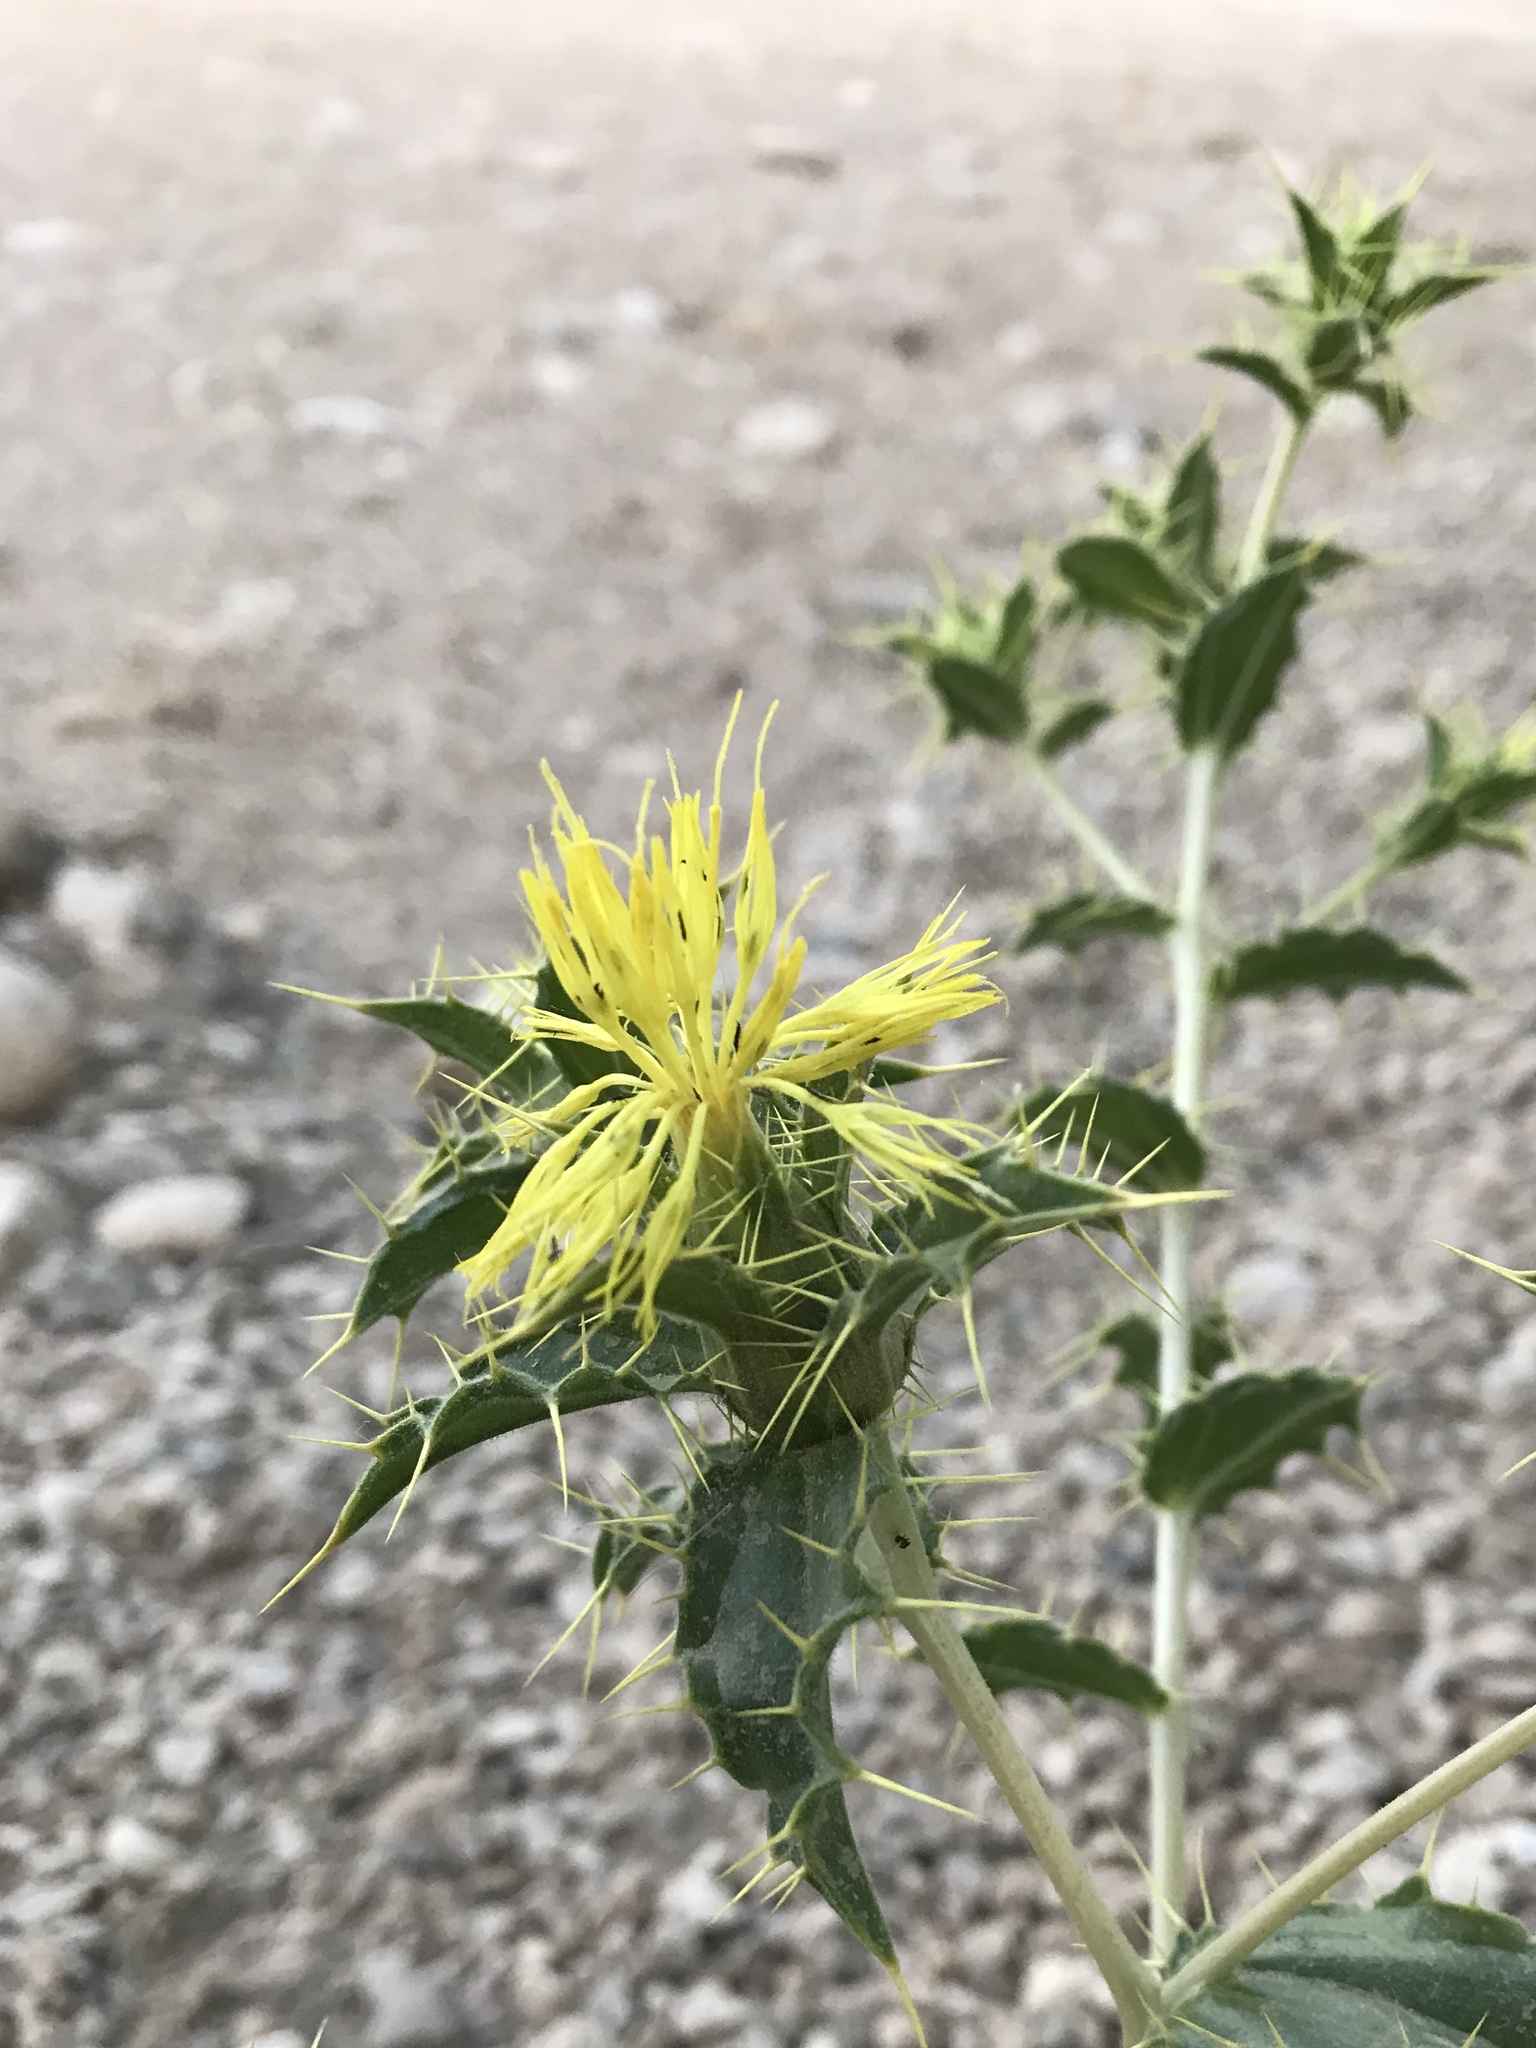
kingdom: Plantae
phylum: Tracheophyta
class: Magnoliopsida
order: Asterales
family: Asteraceae
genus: Carthamus
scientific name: Carthamus oxyacanthus
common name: Wild safflower
